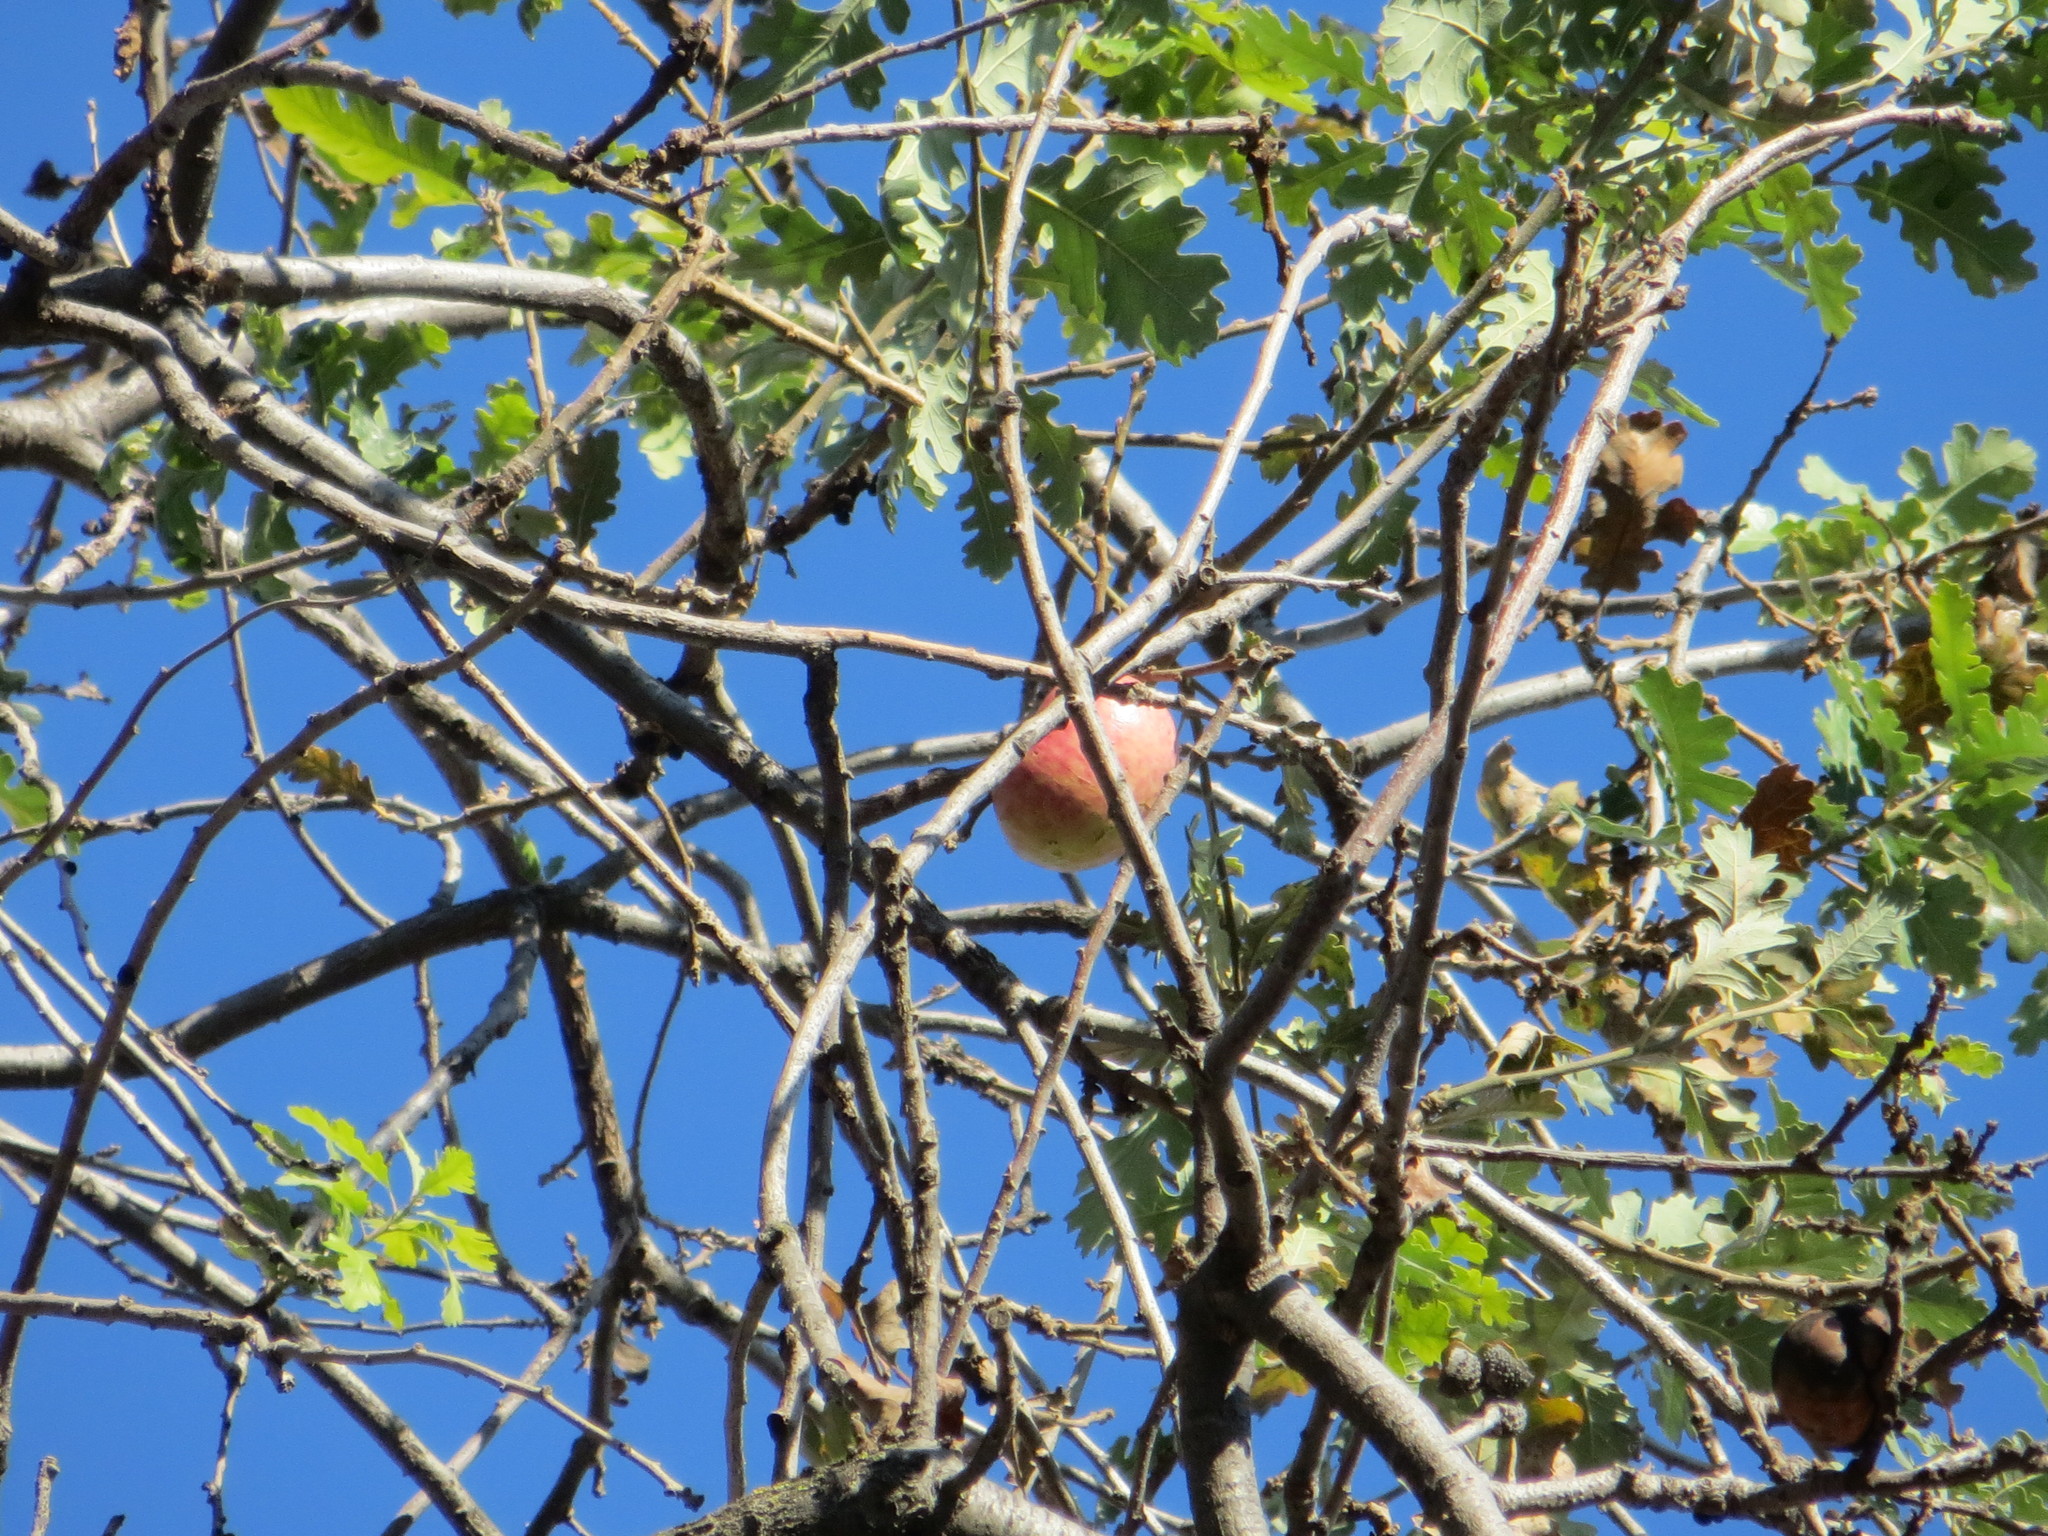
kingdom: Animalia
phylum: Arthropoda
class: Insecta
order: Hymenoptera
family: Cynipidae
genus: Andricus
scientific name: Andricus quercuscalifornicus
